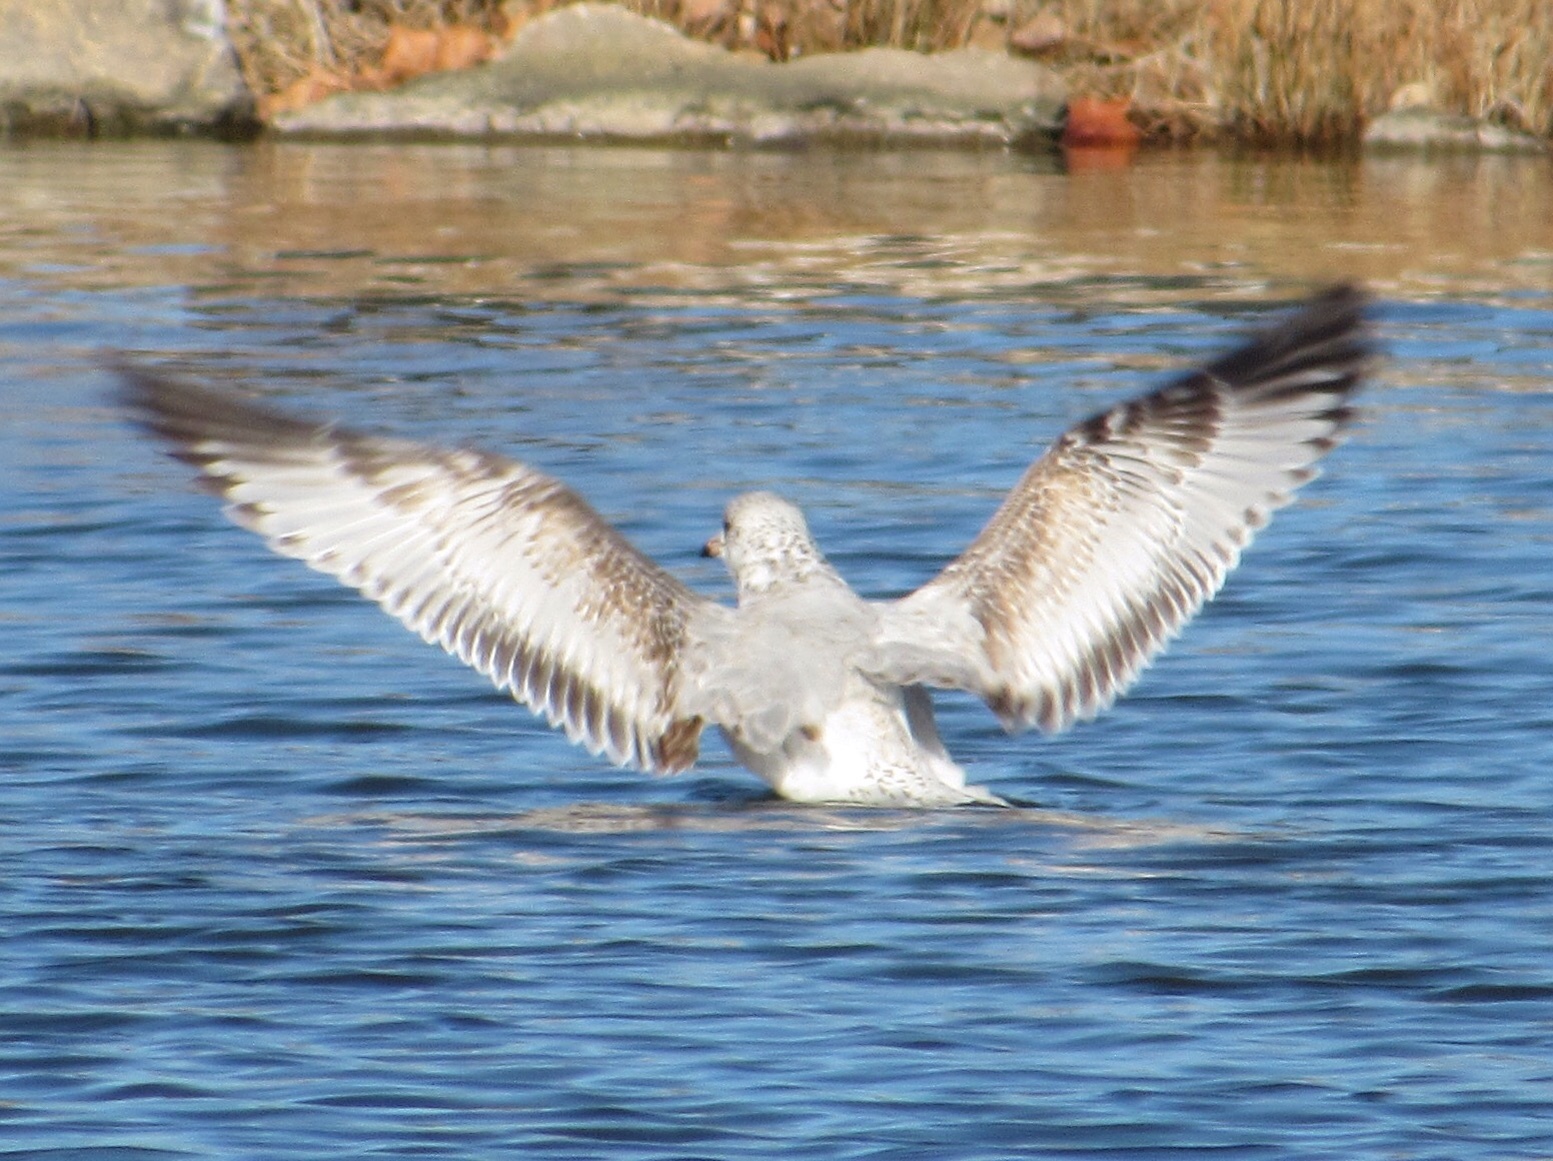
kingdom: Animalia
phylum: Chordata
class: Aves
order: Charadriiformes
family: Laridae
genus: Larus
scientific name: Larus delawarensis
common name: Ring-billed gull
